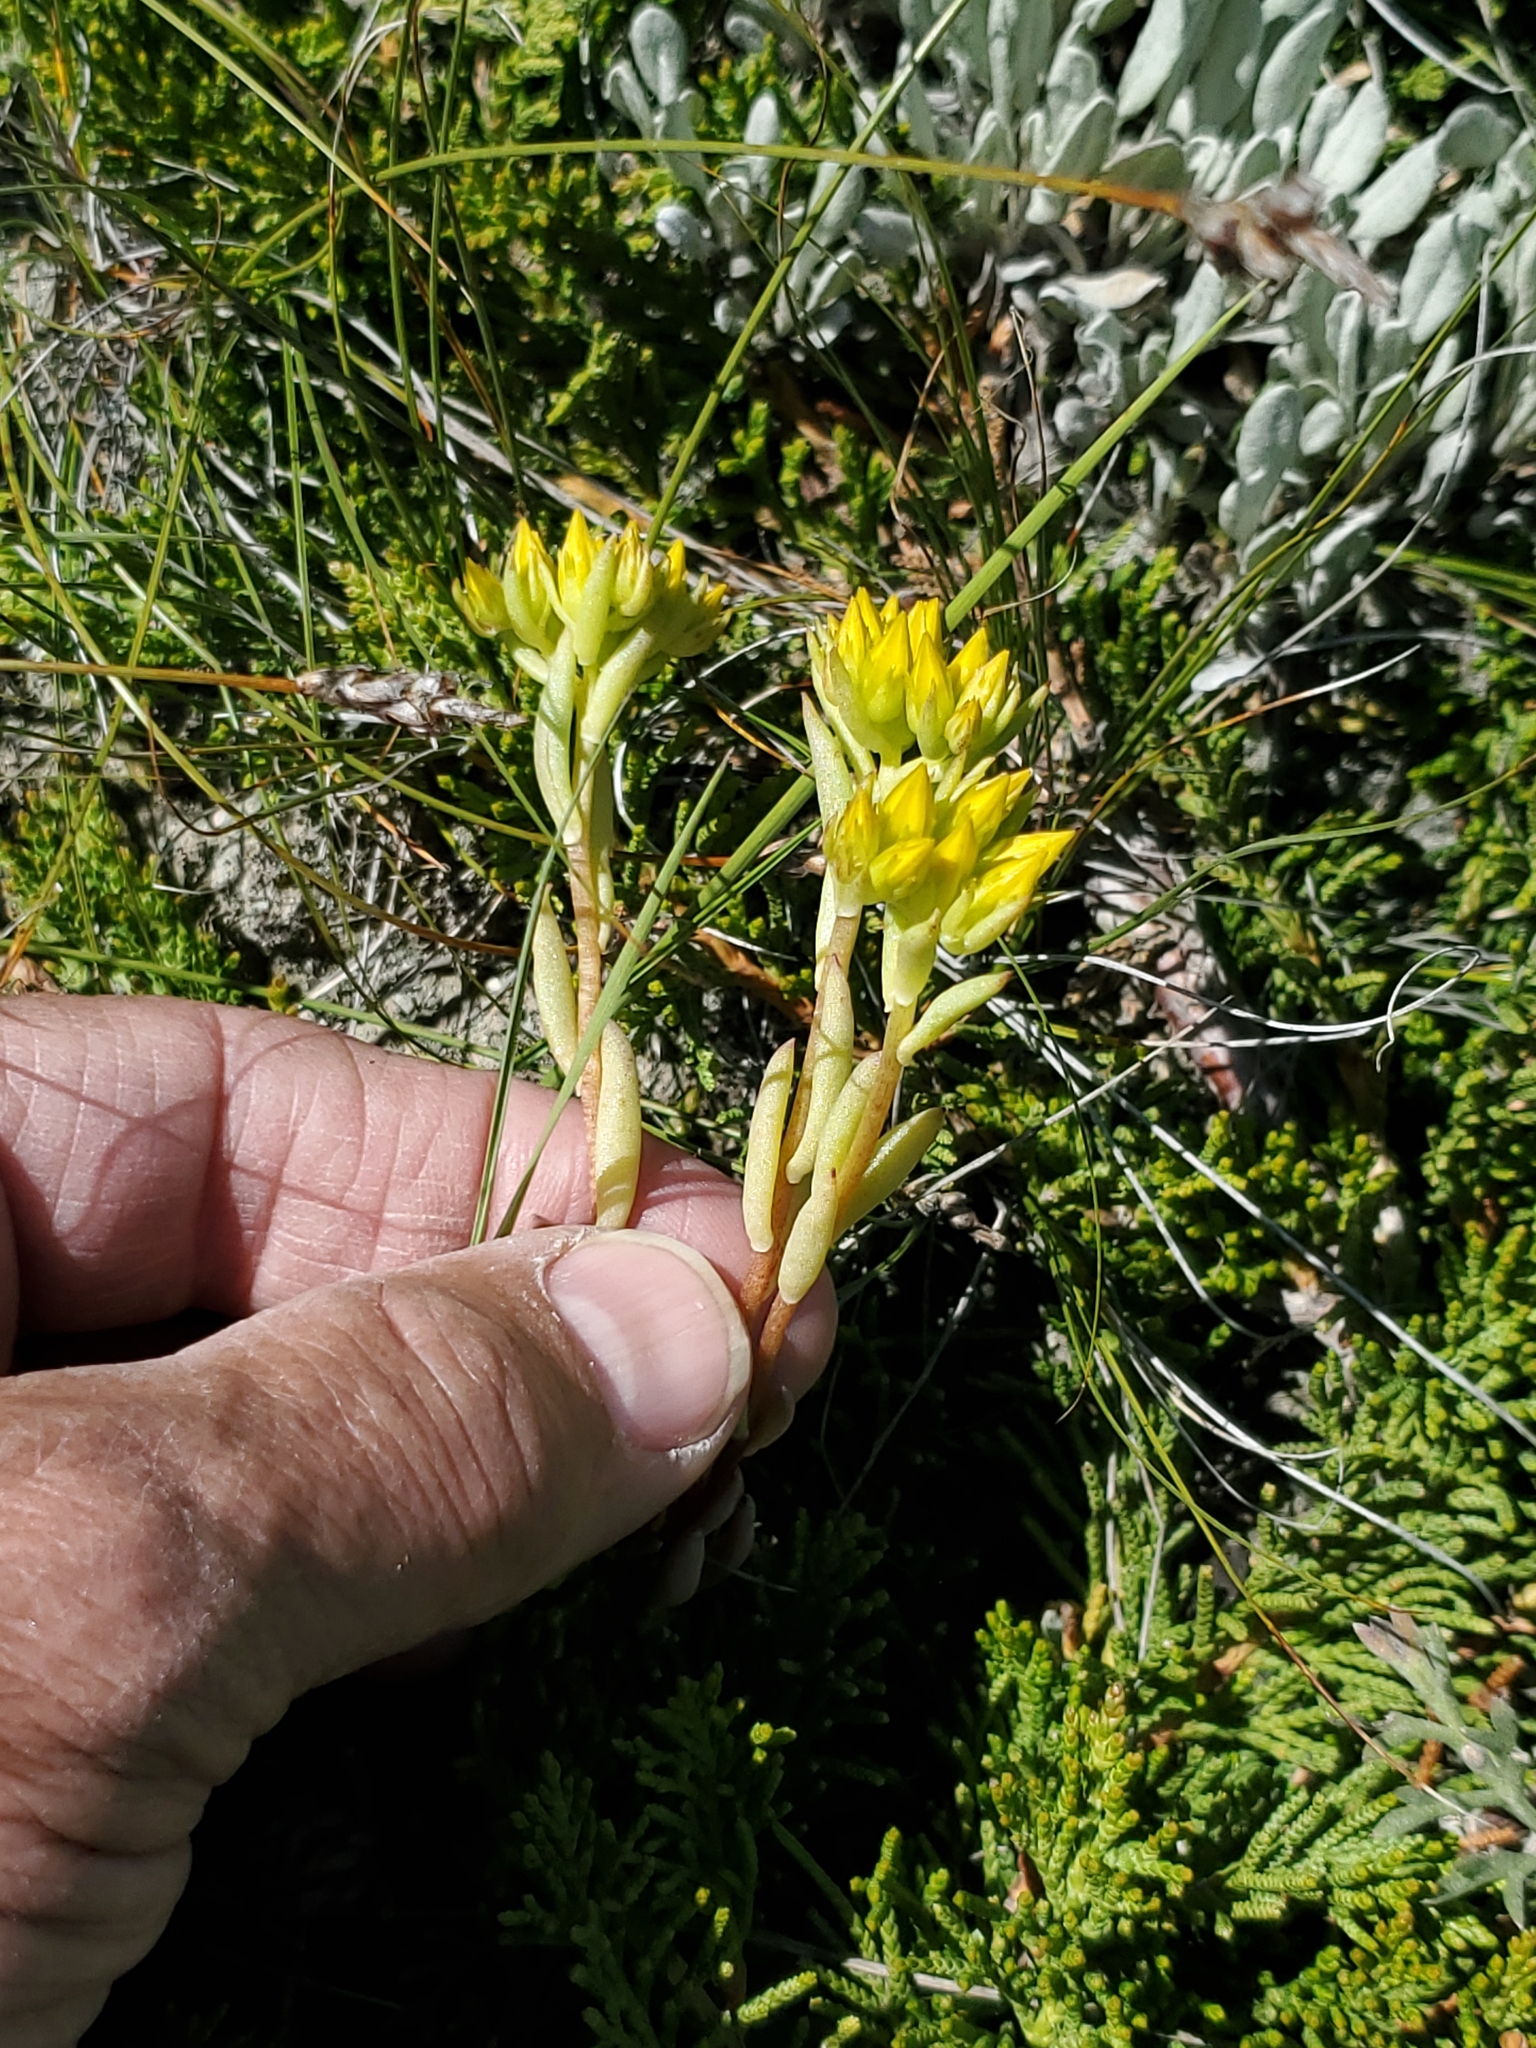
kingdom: Plantae
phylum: Tracheophyta
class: Magnoliopsida
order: Saxifragales
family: Crassulaceae
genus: Sedum
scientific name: Sedum lanceolatum
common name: Common stonecrop
